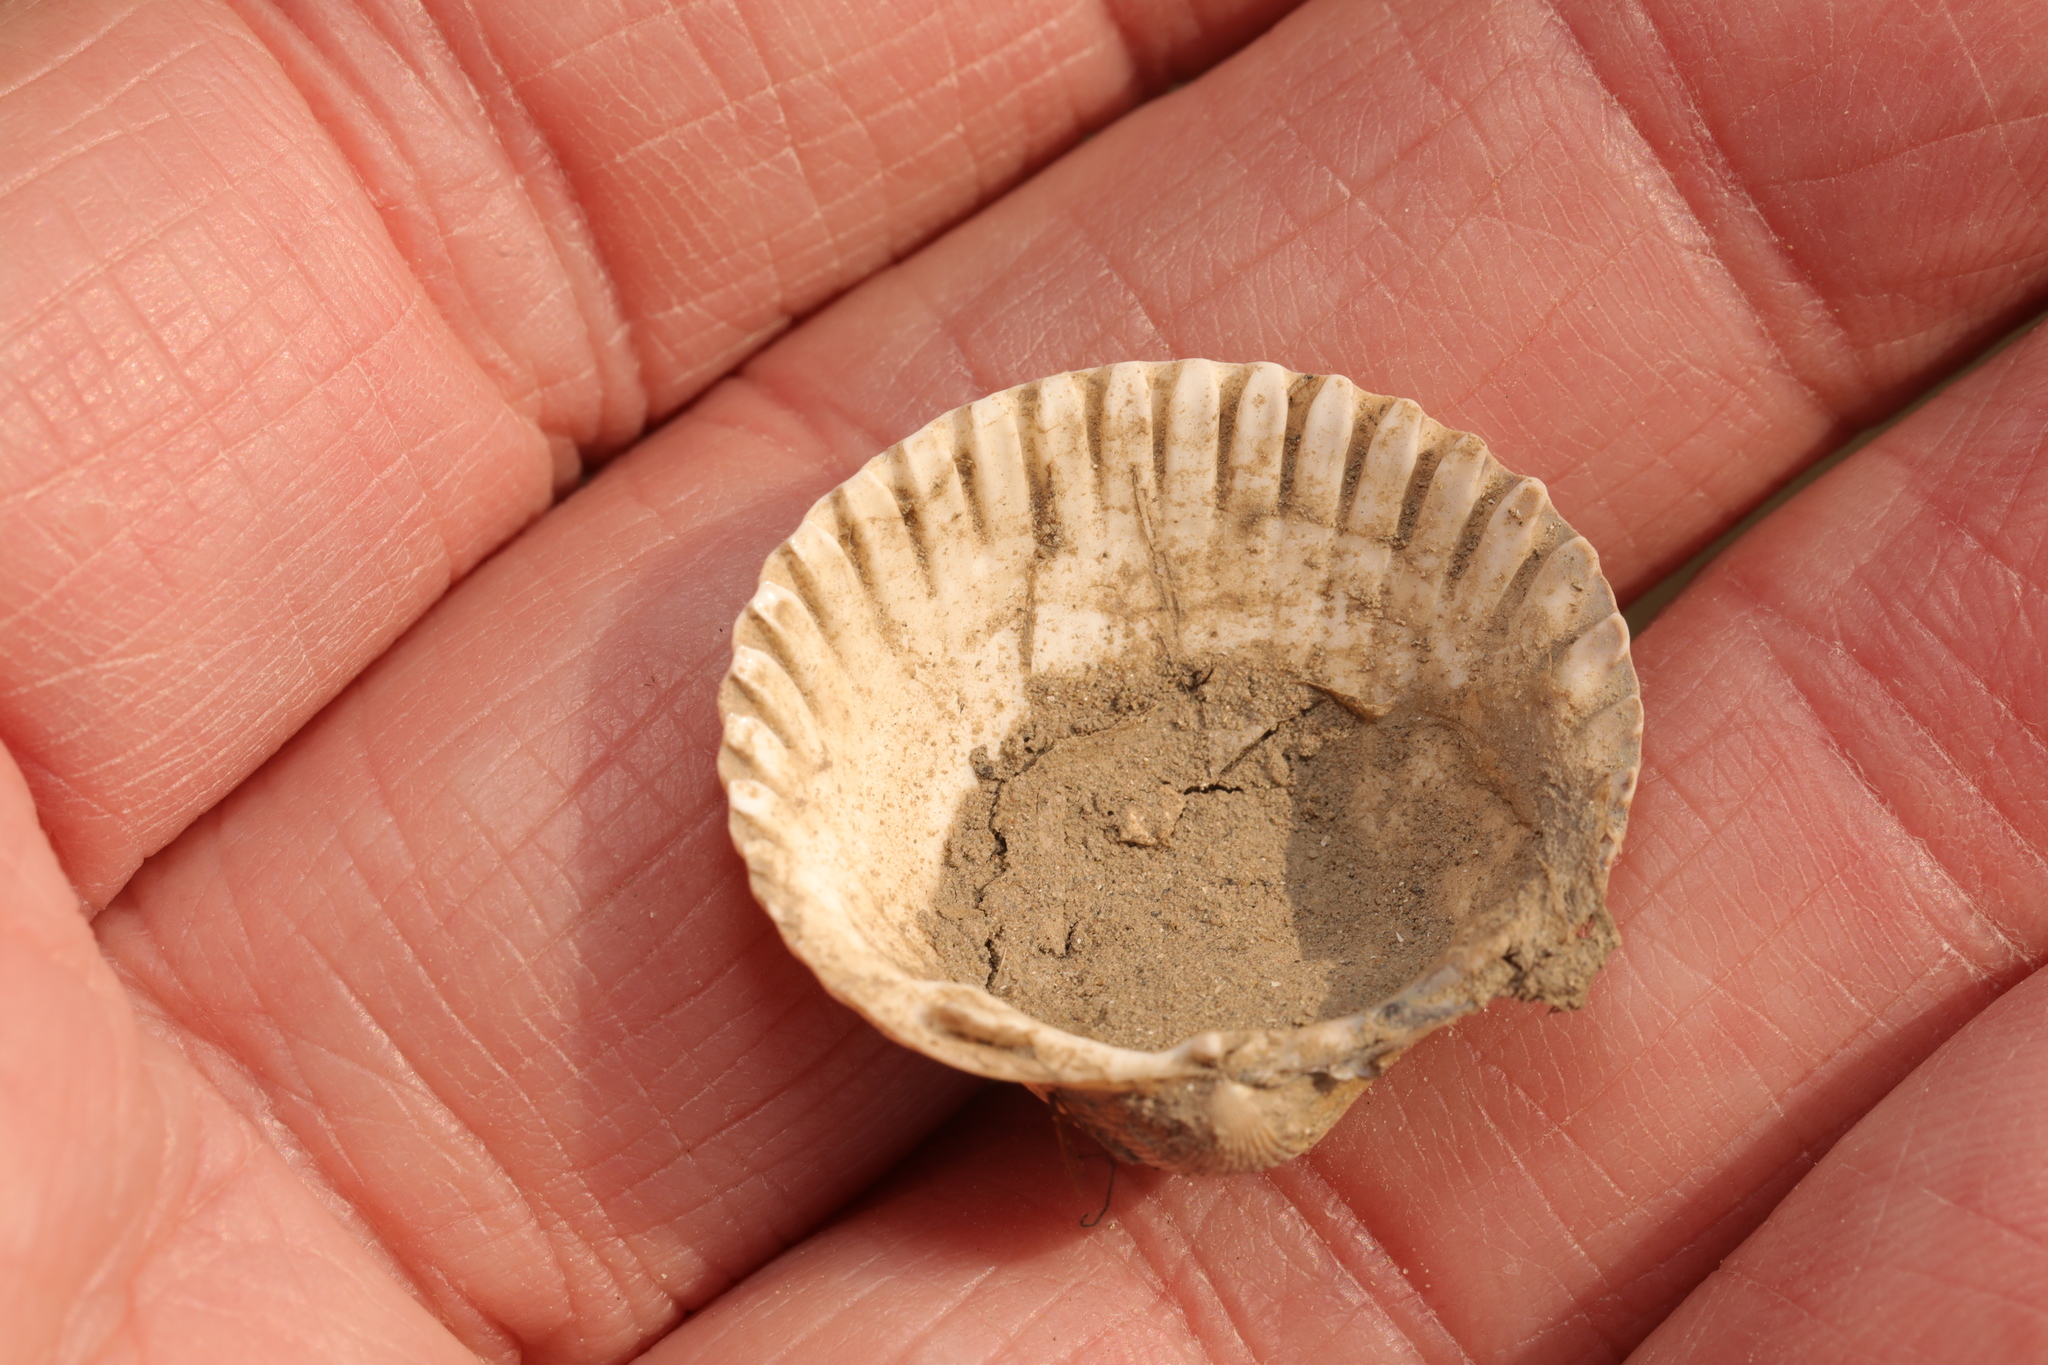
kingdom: Animalia
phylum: Mollusca
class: Bivalvia
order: Cardiida
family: Cardiidae
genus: Cerastoderma
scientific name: Cerastoderma edule
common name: Common cockle
